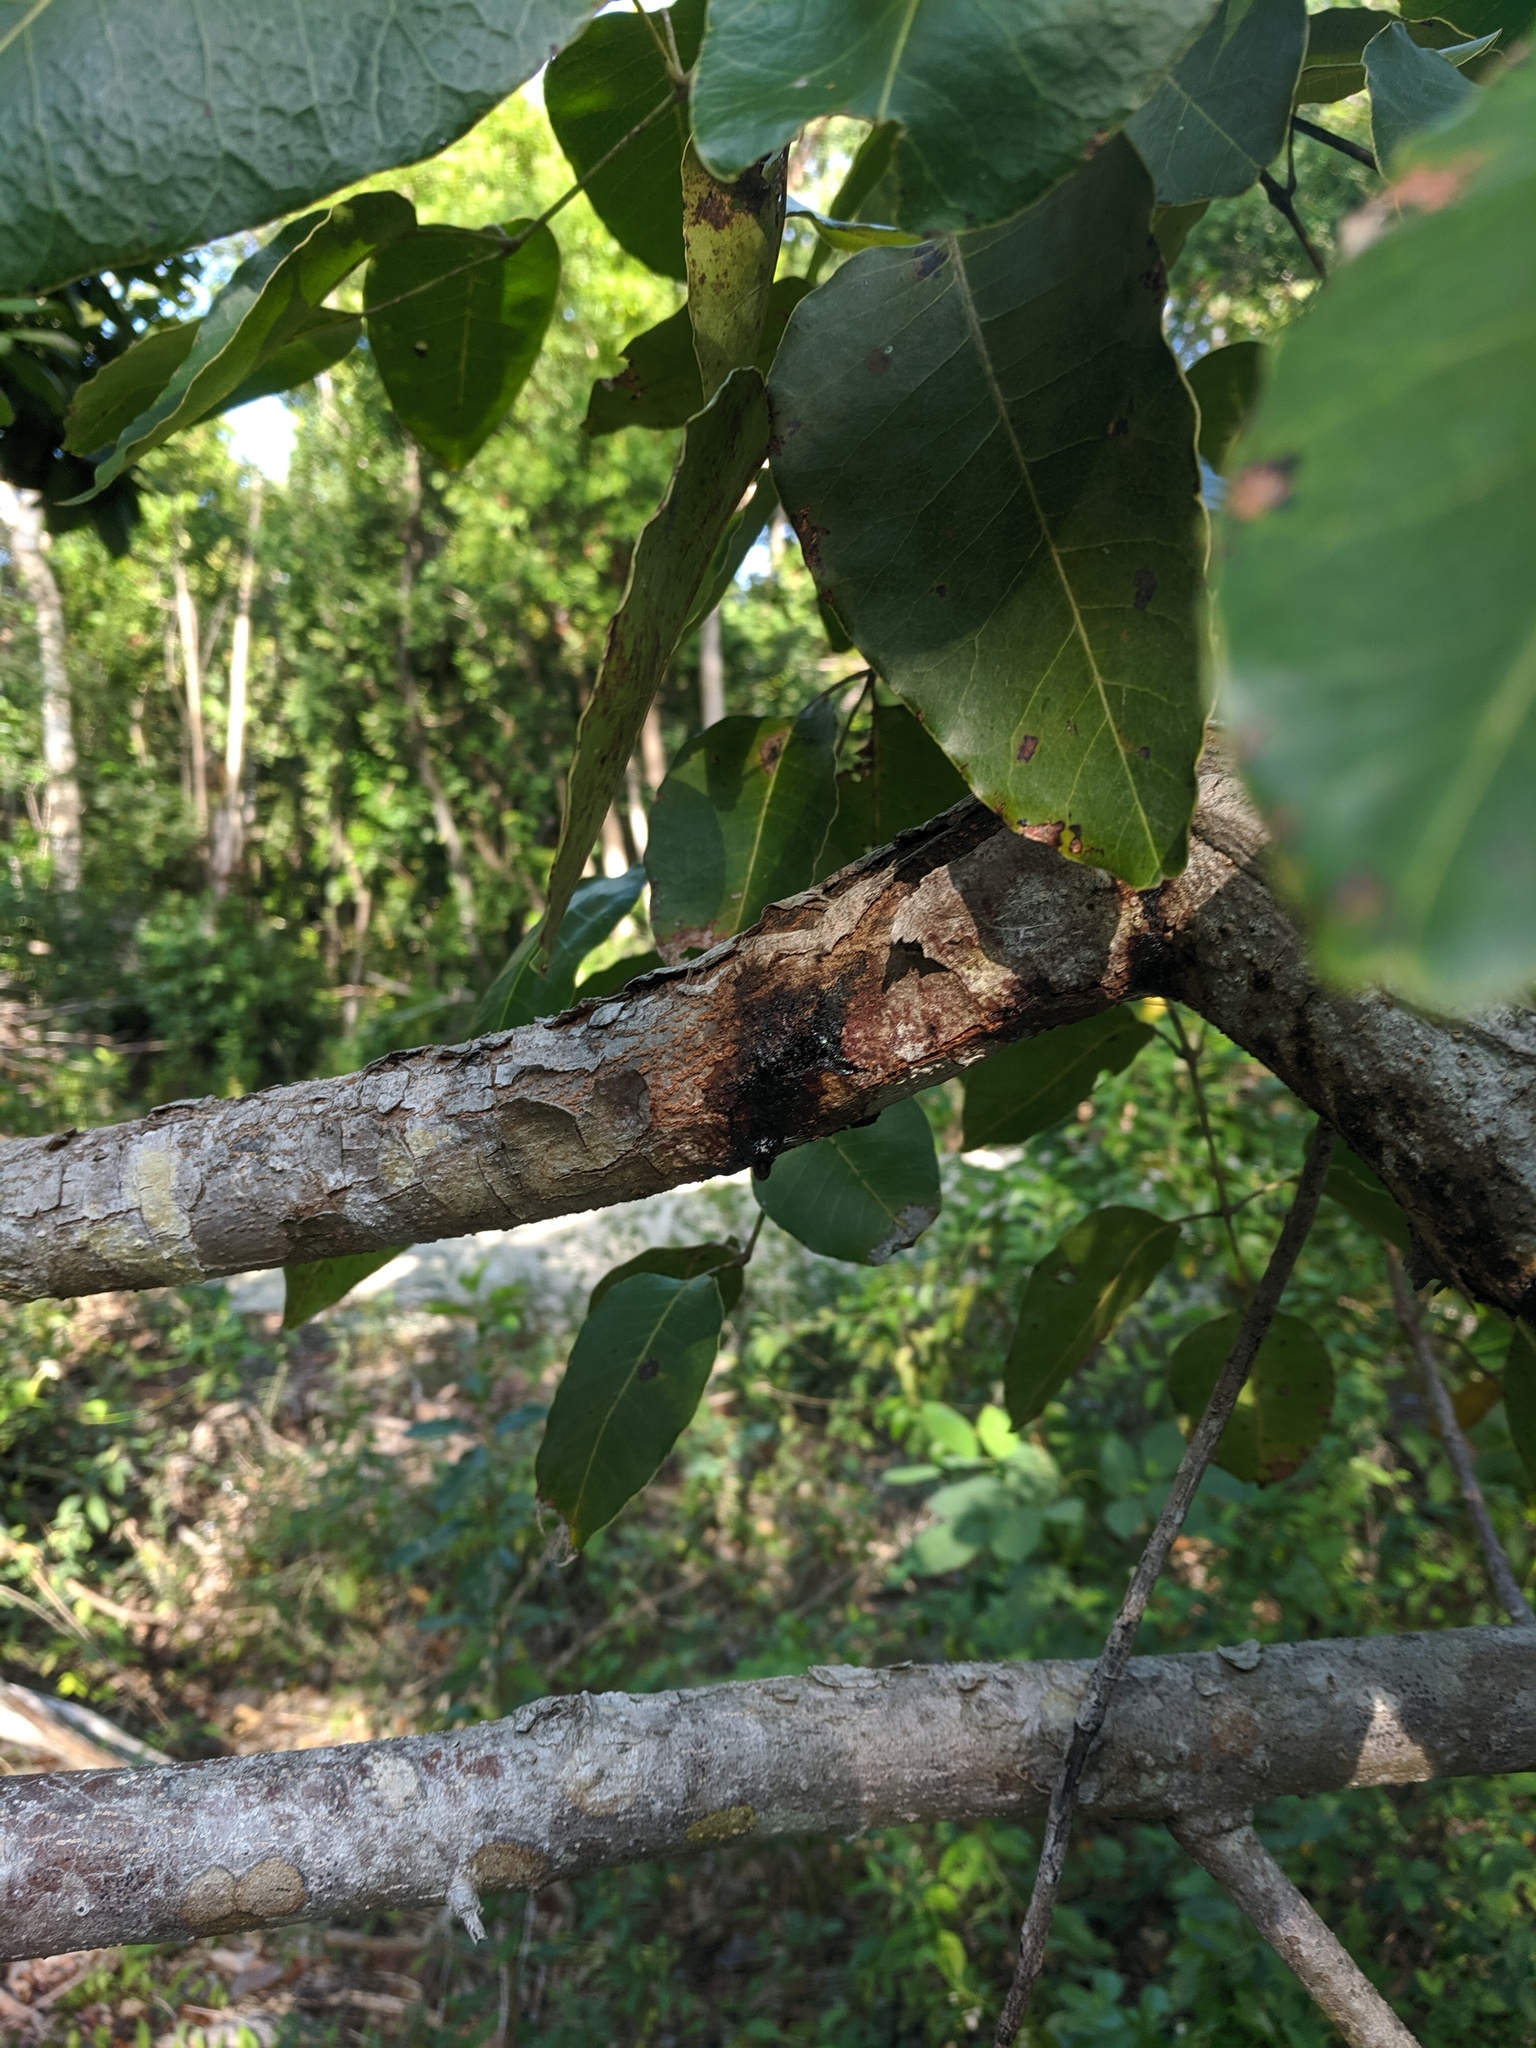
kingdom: Plantae
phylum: Tracheophyta
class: Magnoliopsida
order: Sapindales
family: Anacardiaceae
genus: Metopium
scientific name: Metopium toxiferum
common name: Florida poisontree
